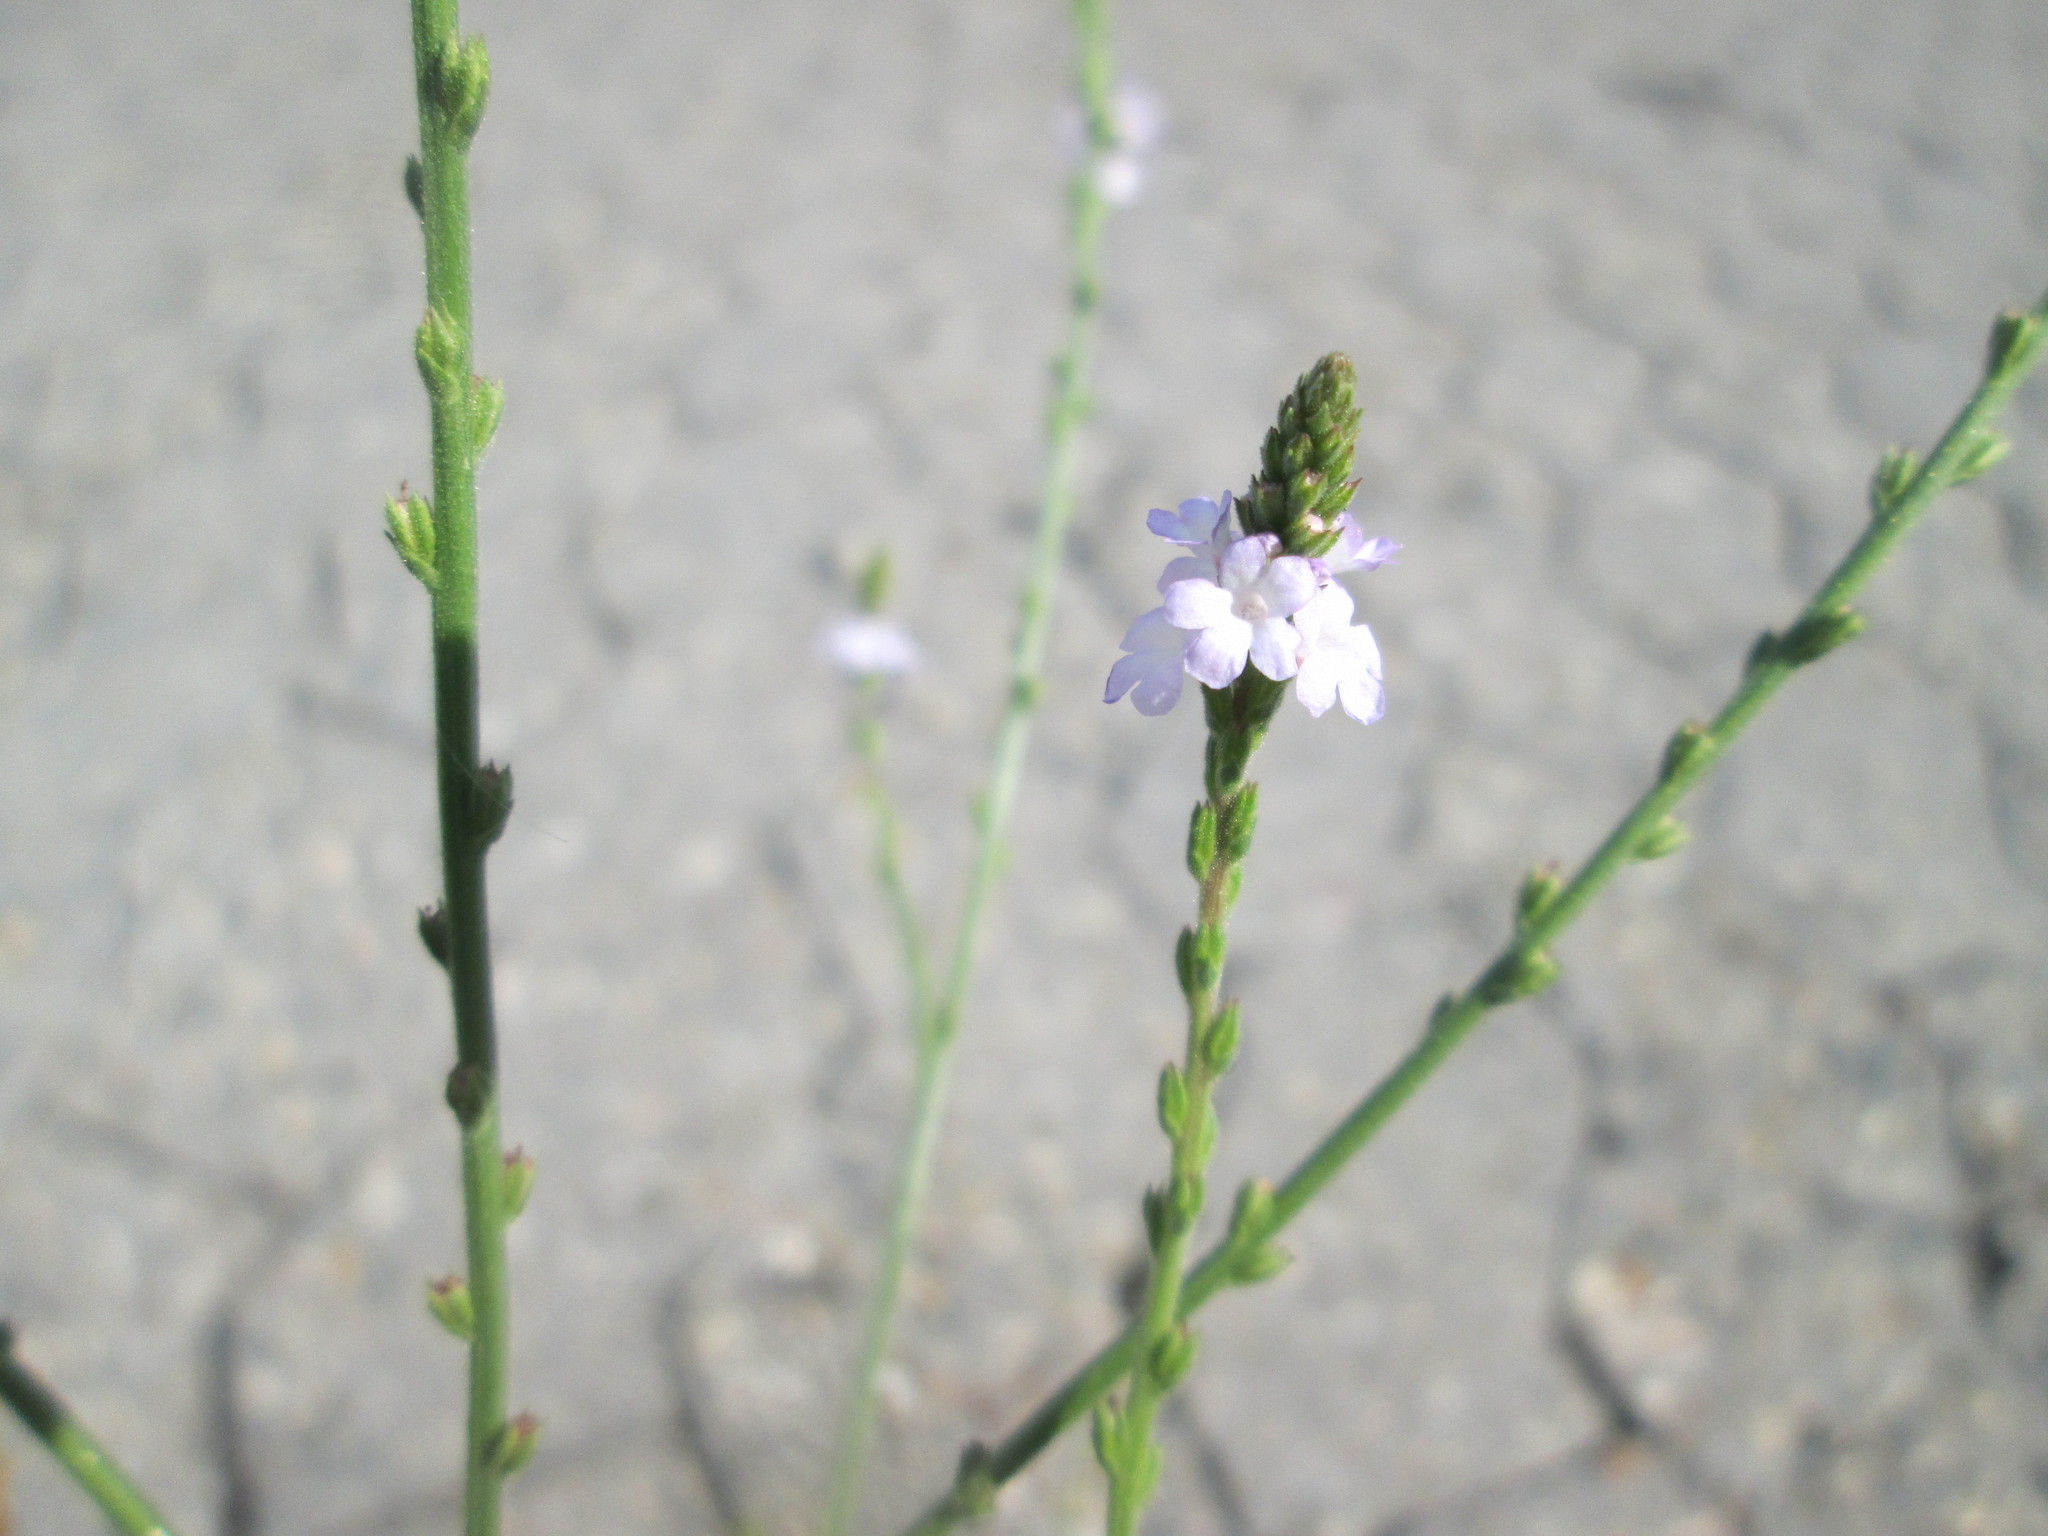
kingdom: Plantae
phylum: Tracheophyta
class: Magnoliopsida
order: Lamiales
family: Verbenaceae
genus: Verbena
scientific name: Verbena officinalis
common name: Vervain
